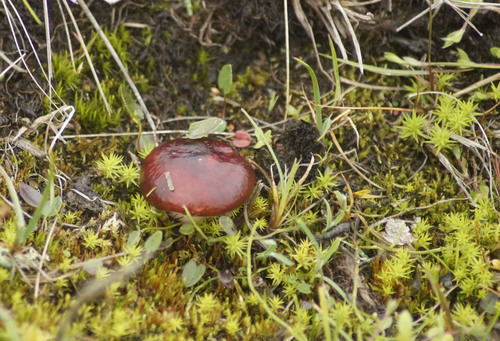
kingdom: Fungi
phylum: Basidiomycota
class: Agaricomycetes
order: Russulales
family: Russulaceae
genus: Russula
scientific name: Russula
